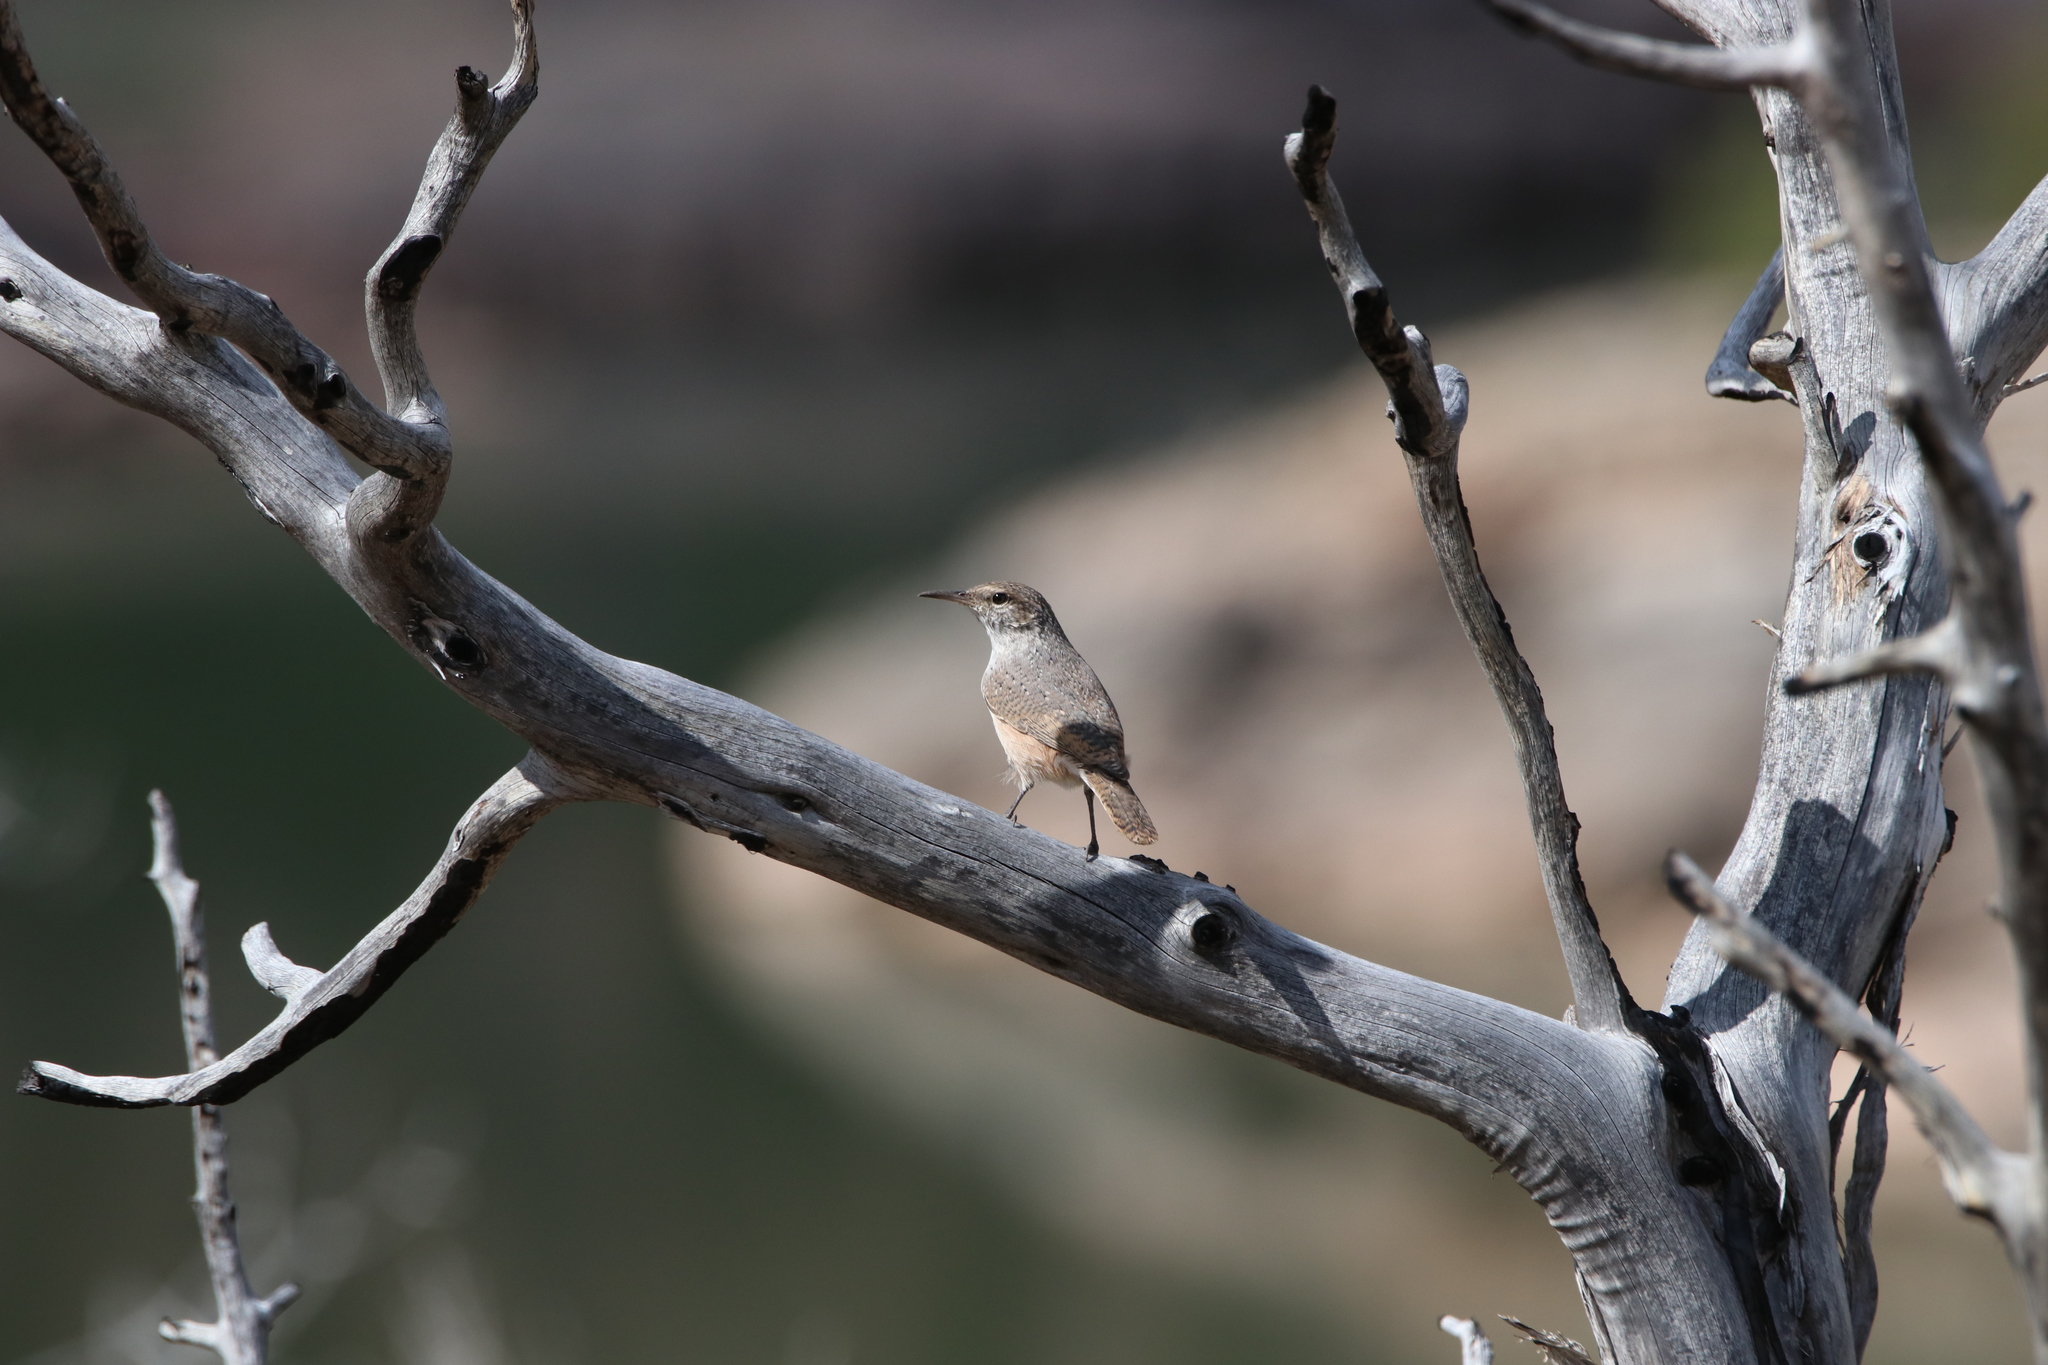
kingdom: Animalia
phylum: Chordata
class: Aves
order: Passeriformes
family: Troglodytidae
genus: Salpinctes
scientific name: Salpinctes obsoletus
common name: Rock wren
